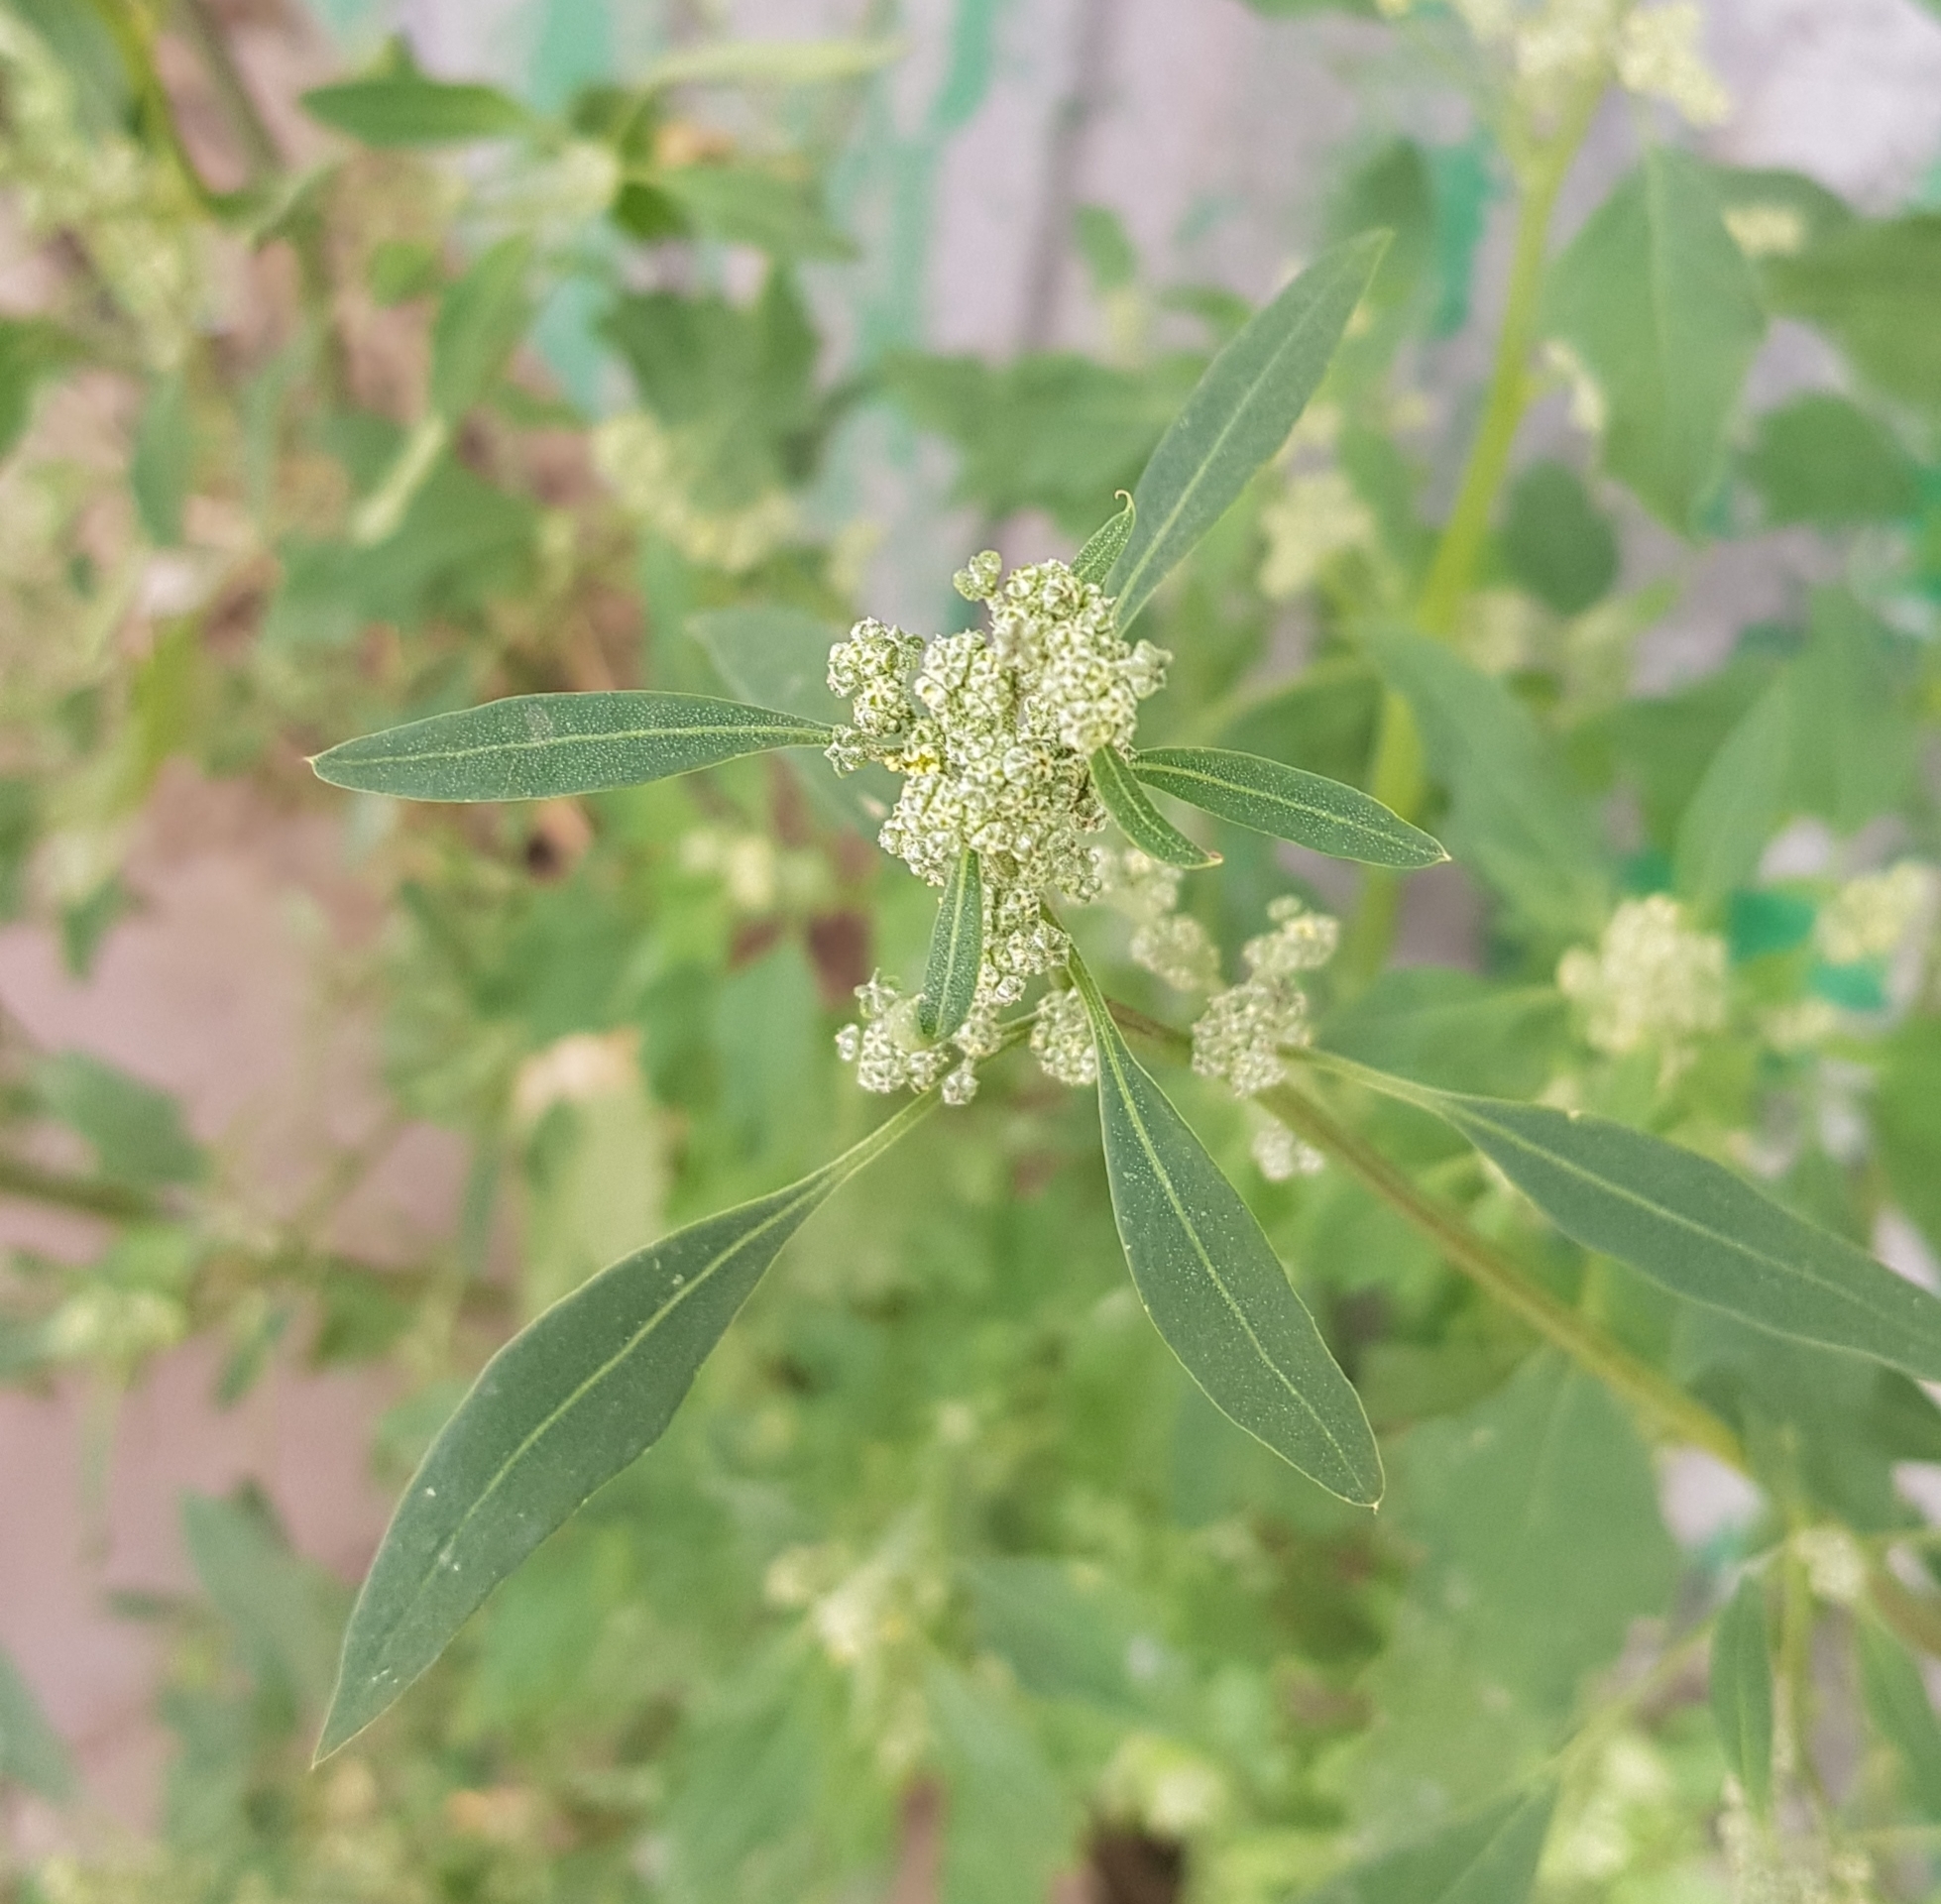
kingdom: Plantae
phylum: Tracheophyta
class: Magnoliopsida
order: Caryophyllales
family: Amaranthaceae
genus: Chenopodium
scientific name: Chenopodium album
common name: Fat-hen
